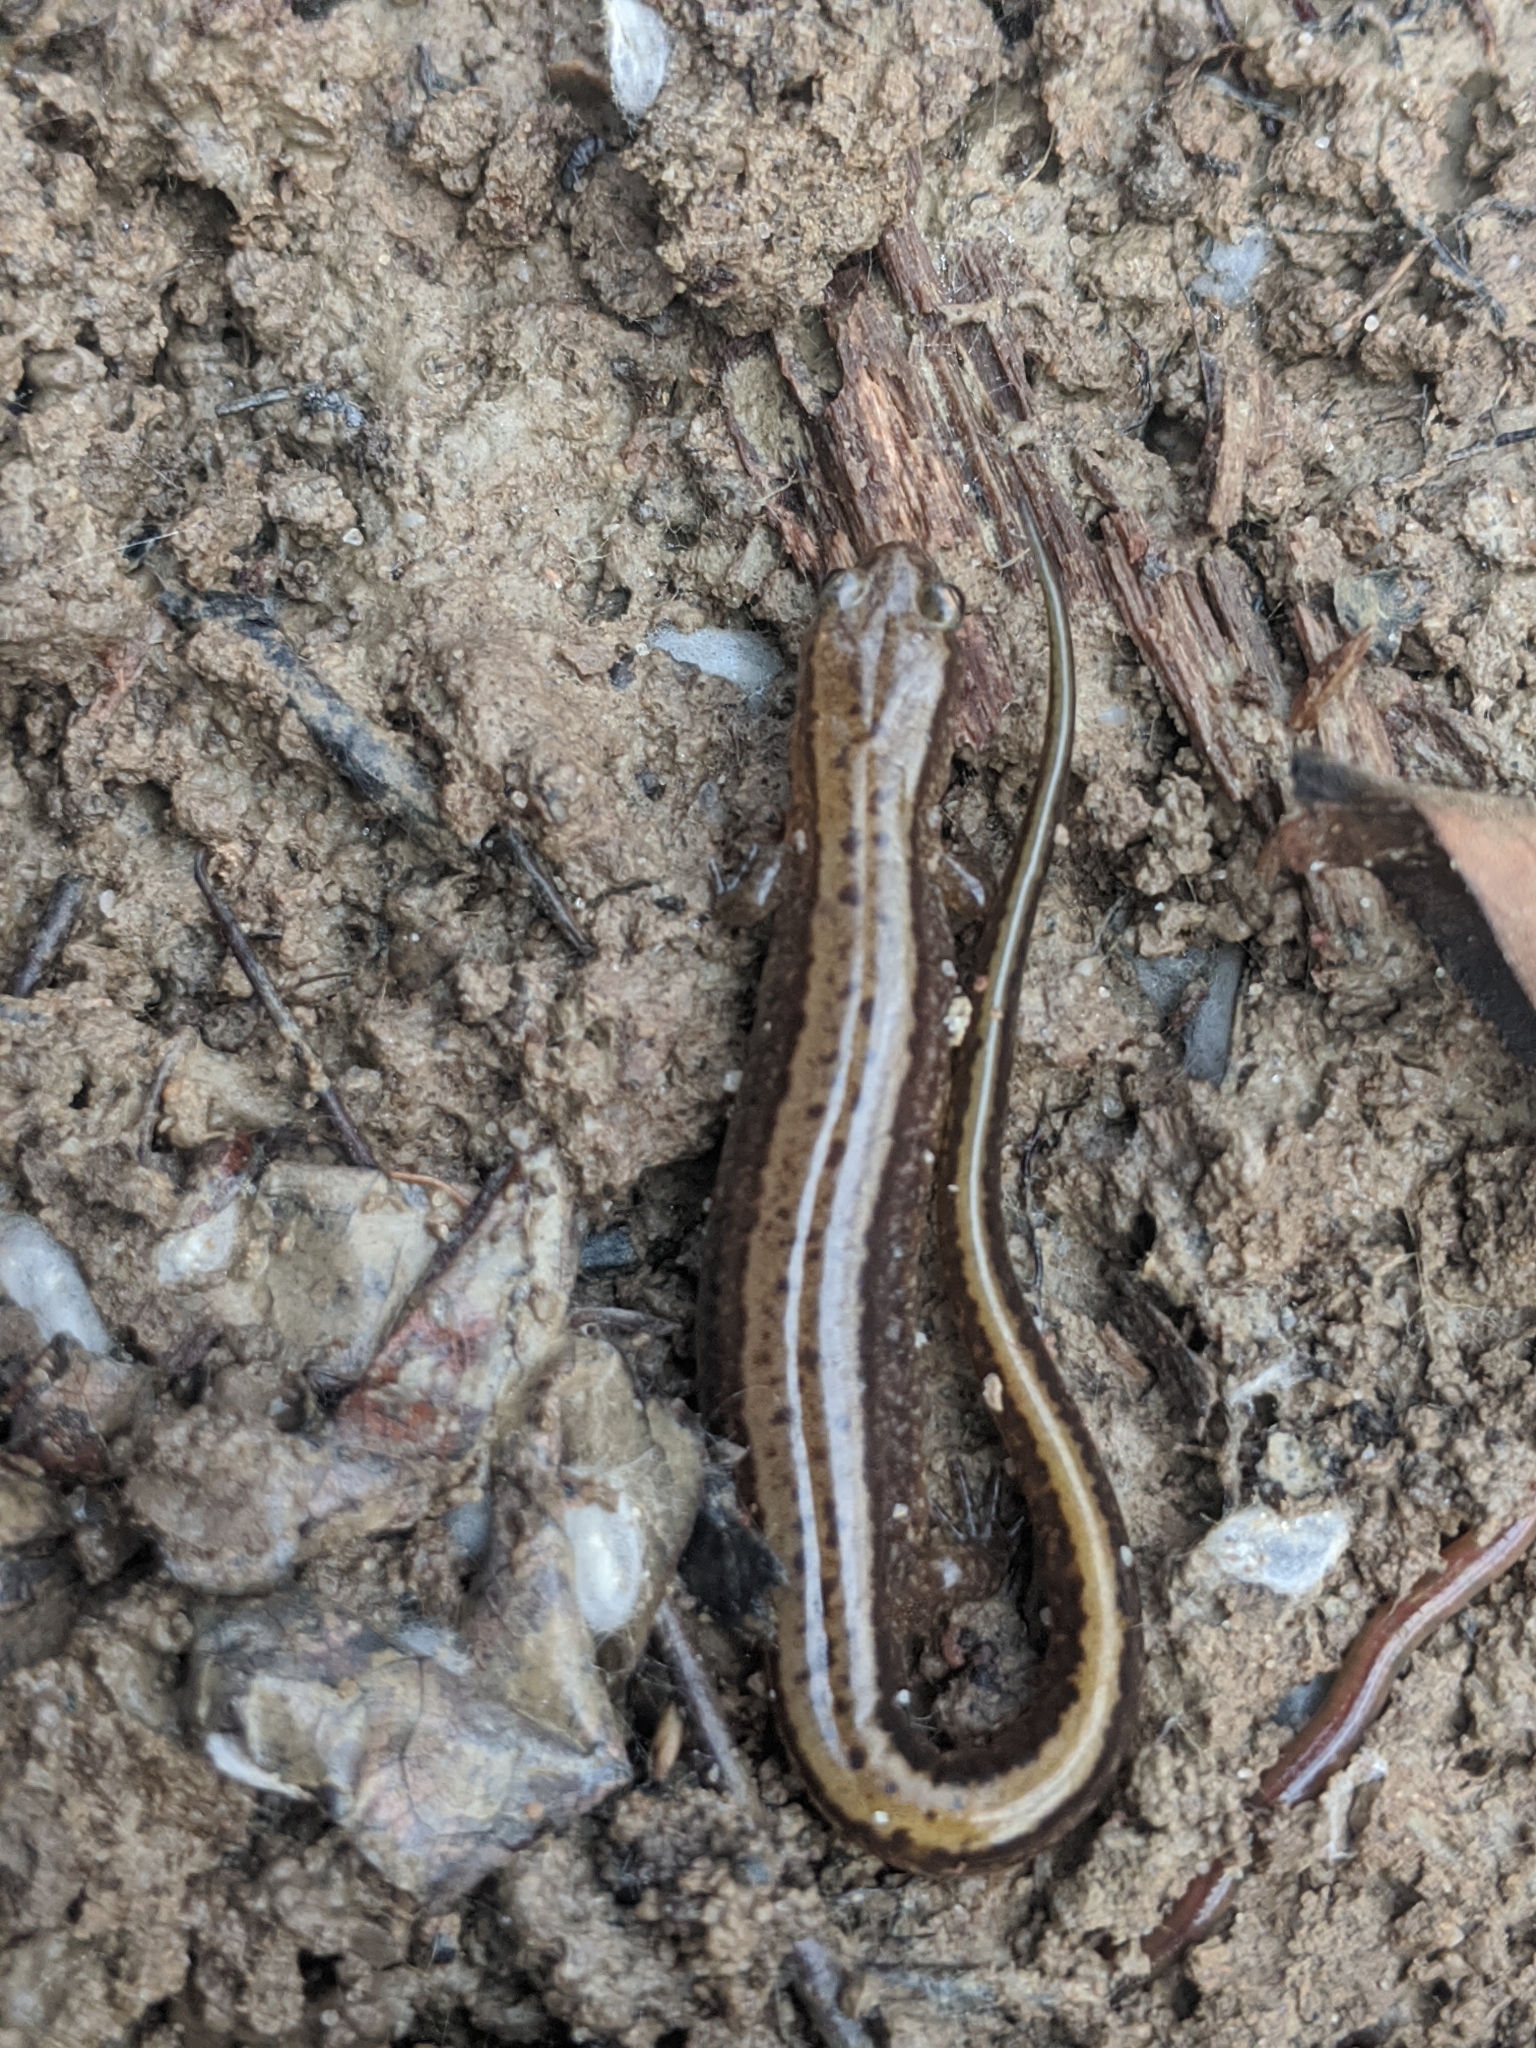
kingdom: Animalia
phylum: Chordata
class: Amphibia
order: Caudata
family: Plethodontidae
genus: Eurycea
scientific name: Eurycea cirrigera
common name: Southern two-lined salamander
